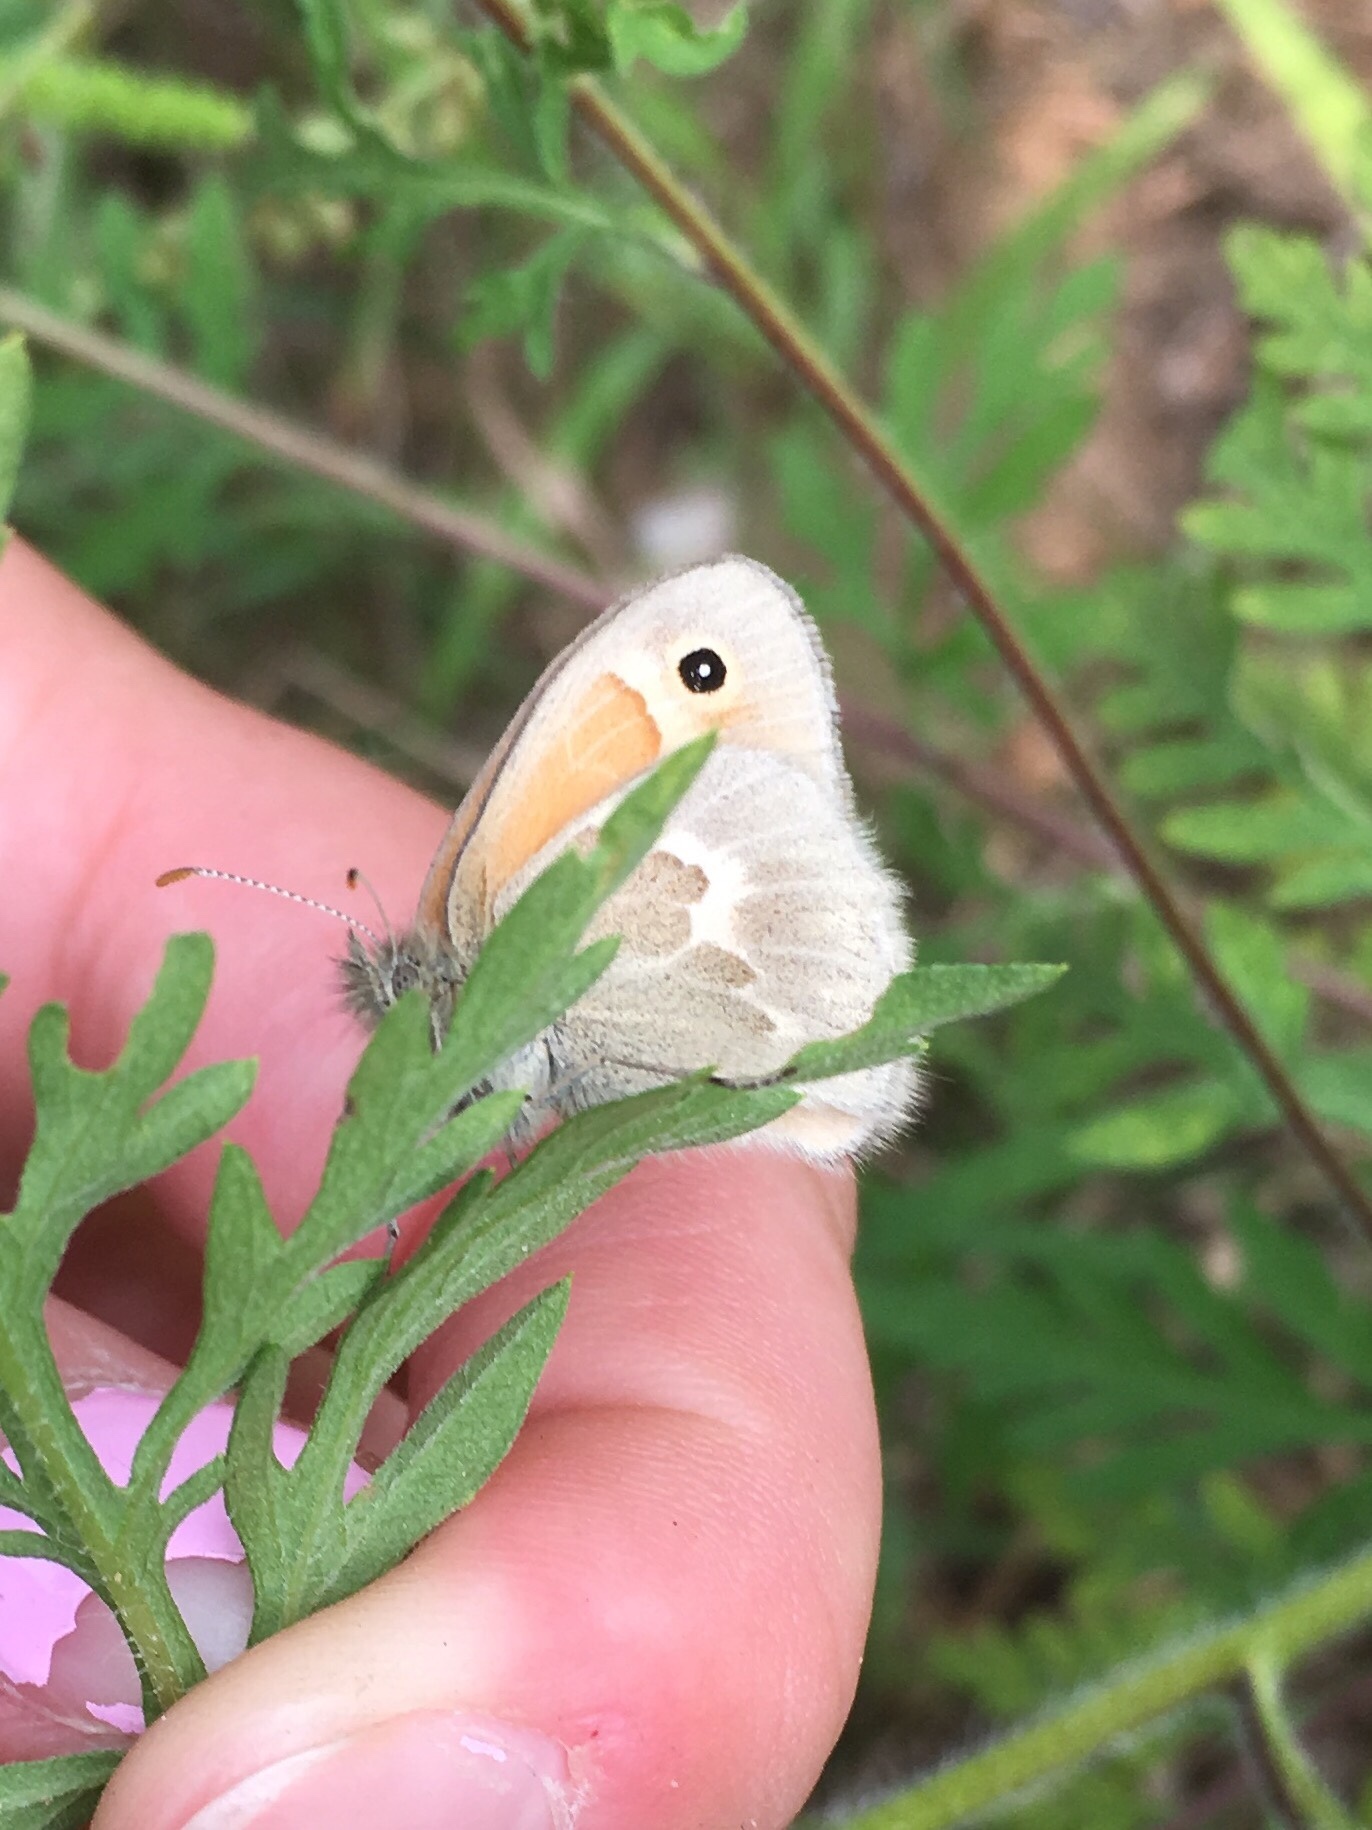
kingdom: Animalia
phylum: Arthropoda
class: Insecta
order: Lepidoptera
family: Nymphalidae
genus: Coenonympha
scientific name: Coenonympha california
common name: Common ringlet
